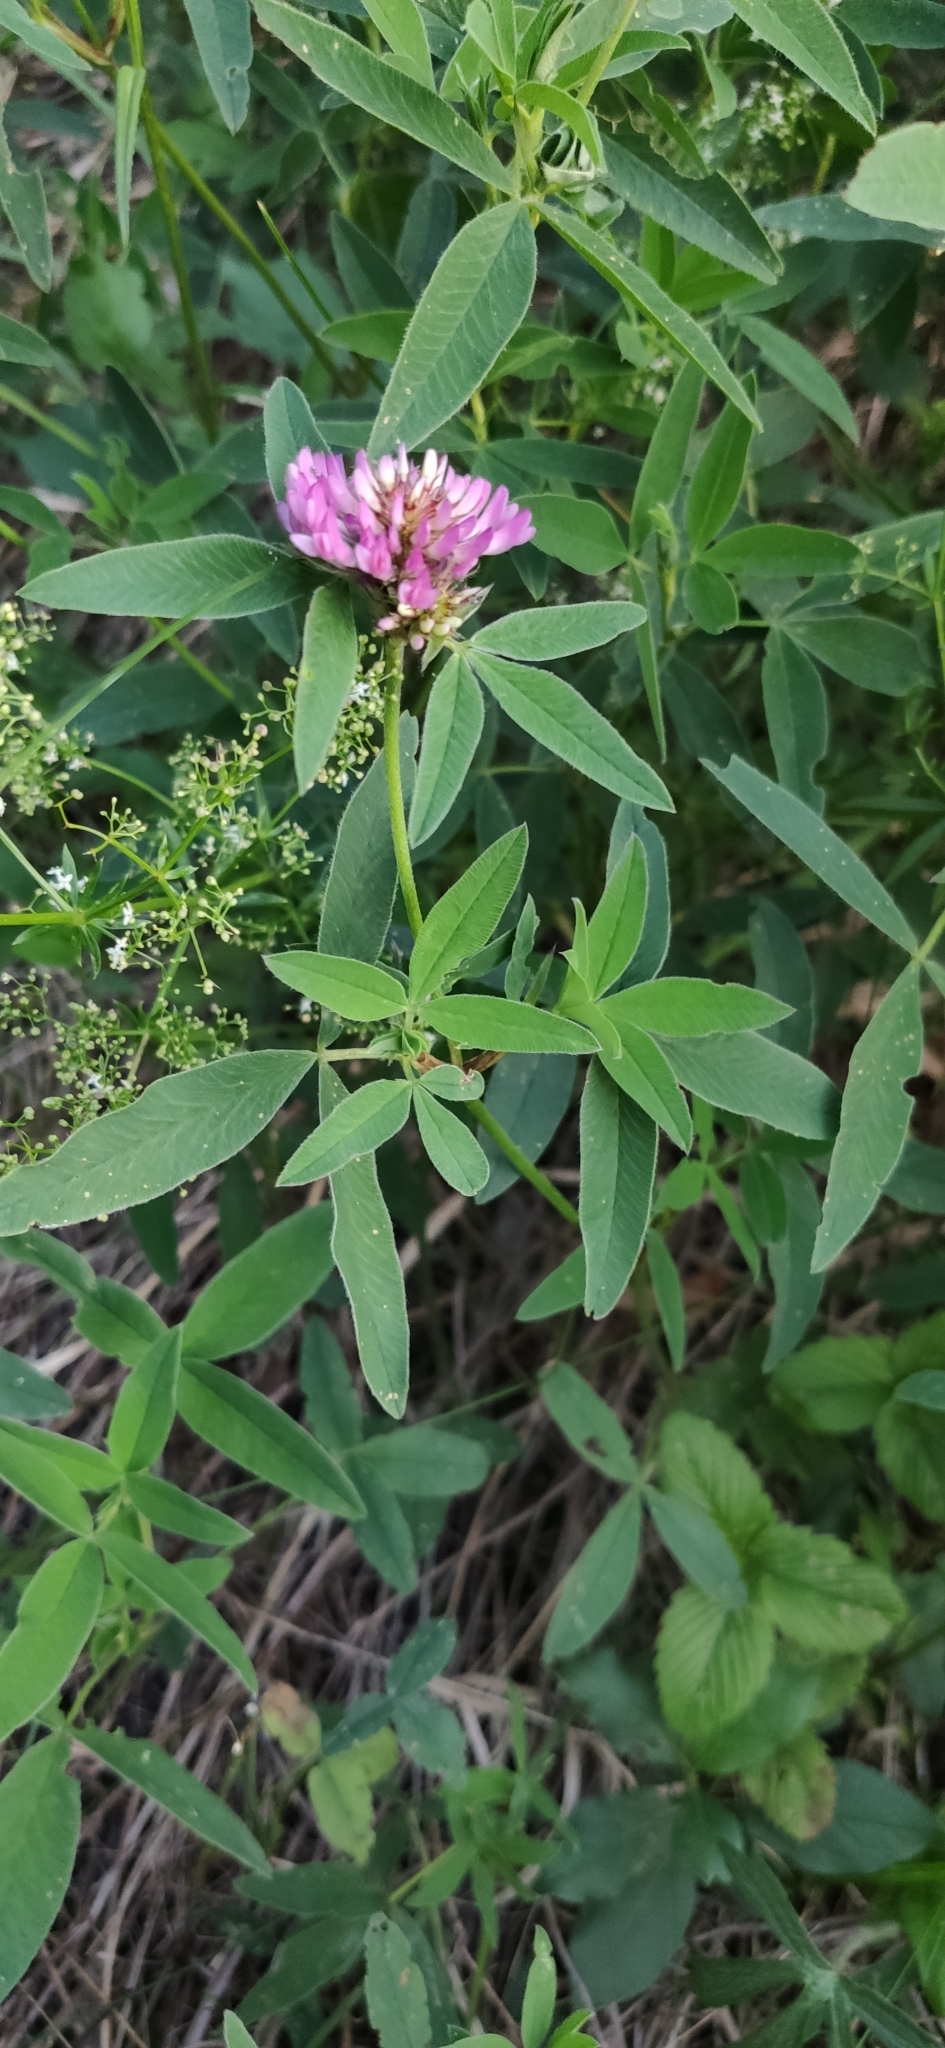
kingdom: Plantae
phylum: Tracheophyta
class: Magnoliopsida
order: Fabales
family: Fabaceae
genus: Trifolium
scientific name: Trifolium medium
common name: Zigzag clover
